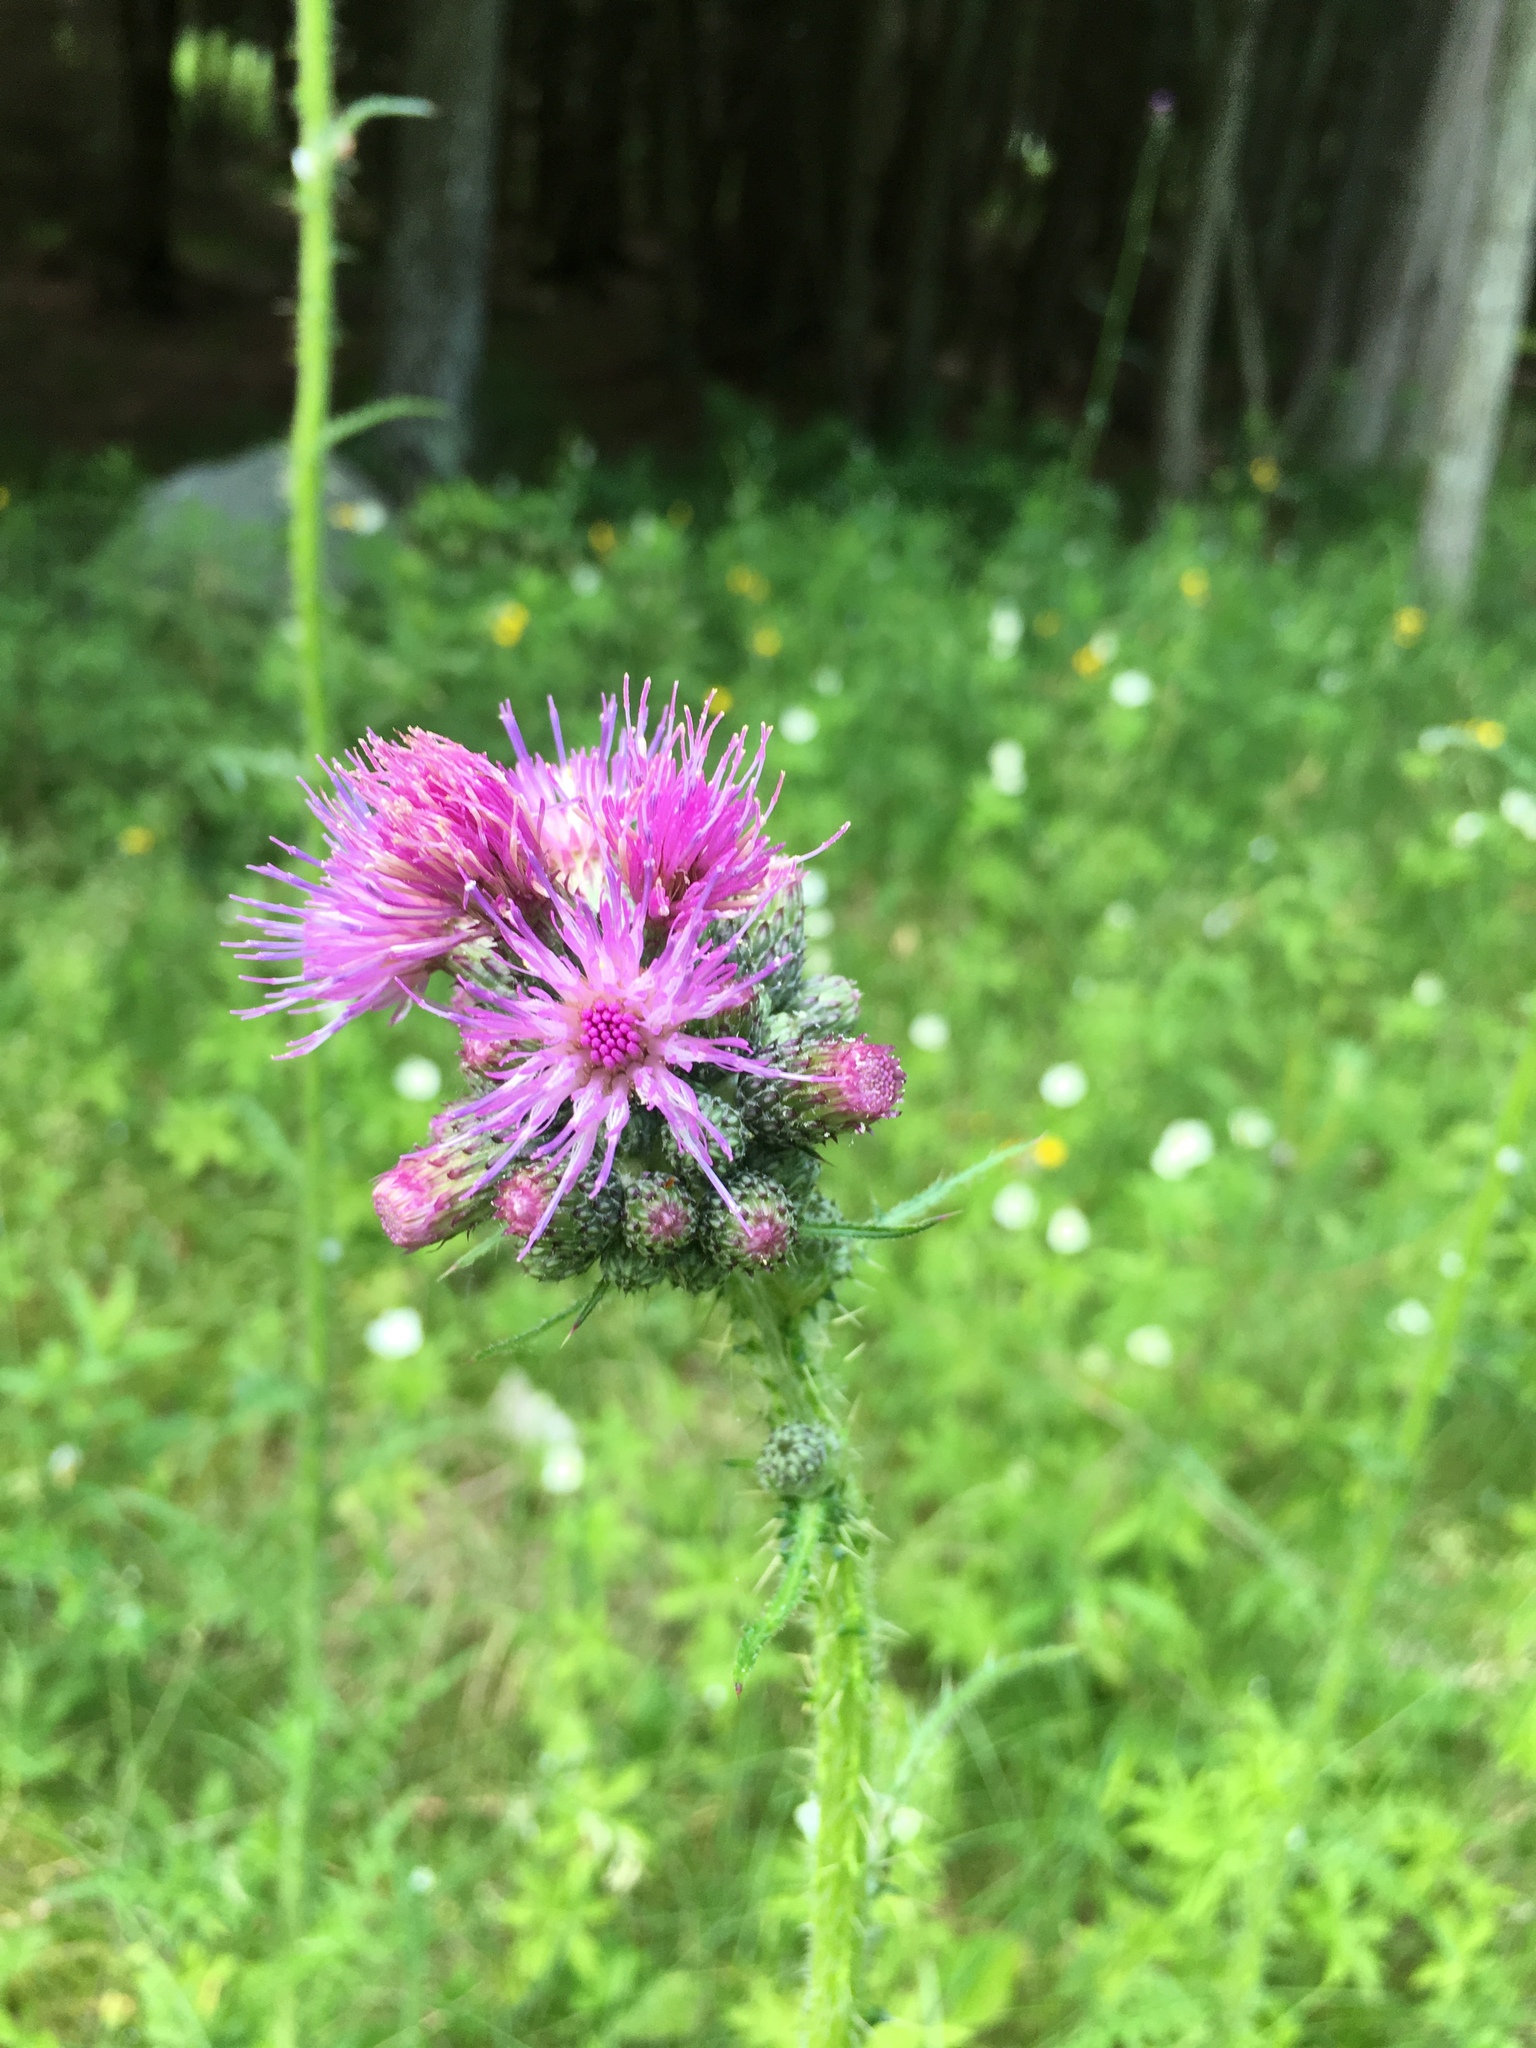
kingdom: Plantae
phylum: Tracheophyta
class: Magnoliopsida
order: Asterales
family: Asteraceae
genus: Cirsium
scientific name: Cirsium palustre
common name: Marsh thistle
